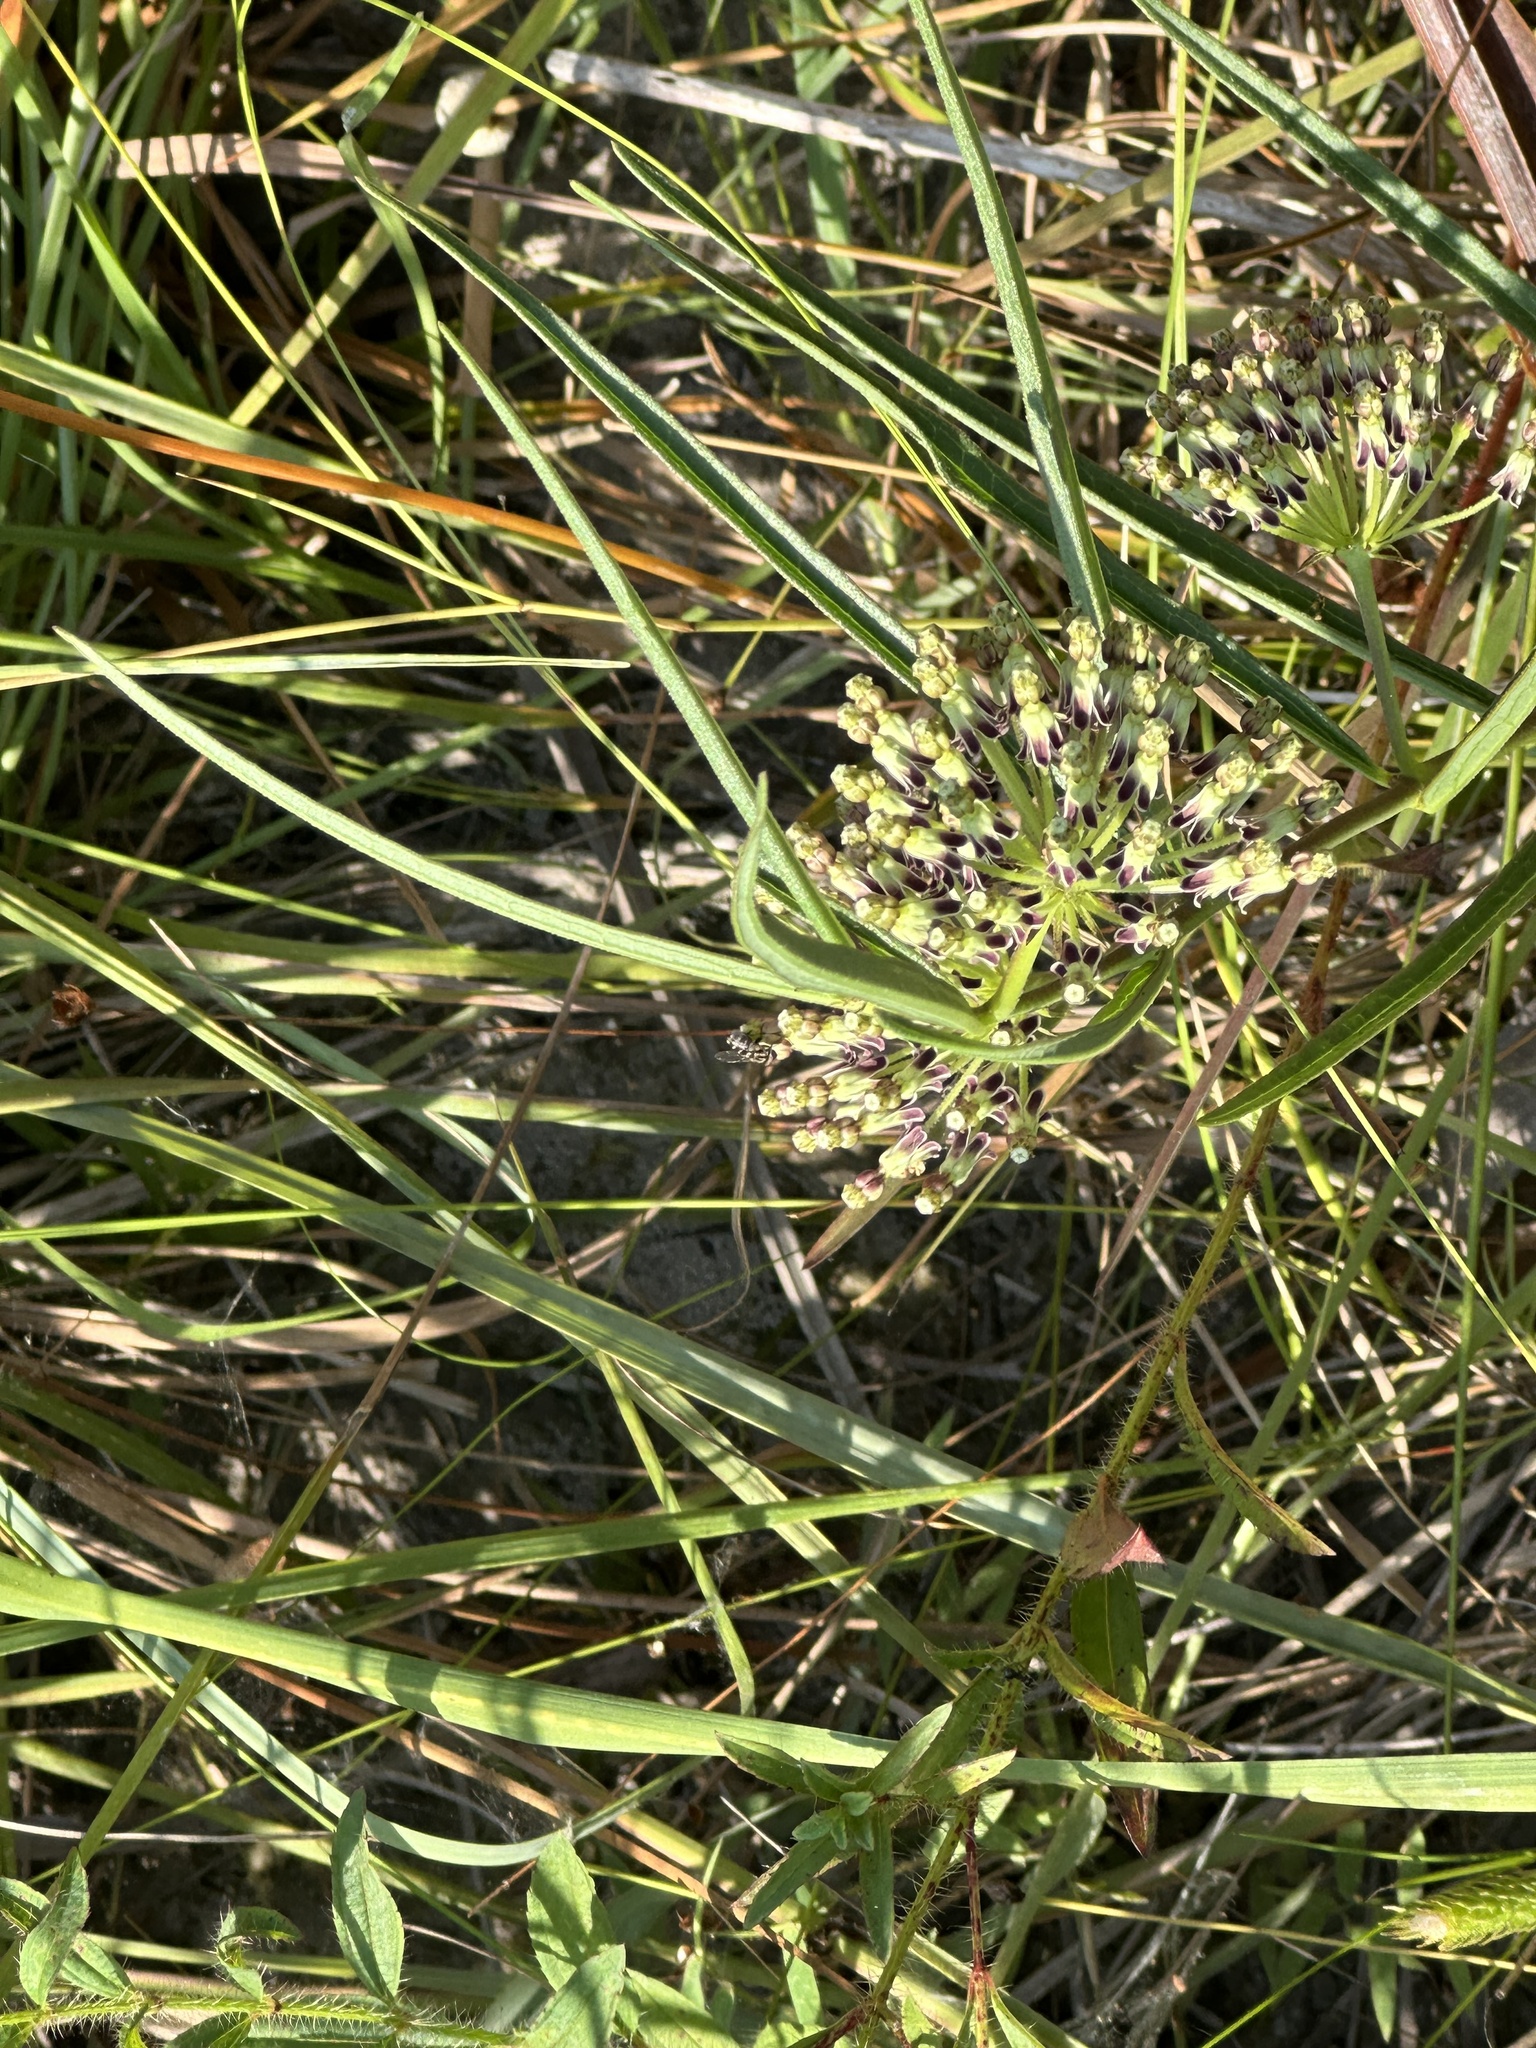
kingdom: Plantae
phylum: Tracheophyta
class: Magnoliopsida
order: Gentianales
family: Apocynaceae
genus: Asclepias
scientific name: Asclepias hirtella
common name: Prairie milkweed
